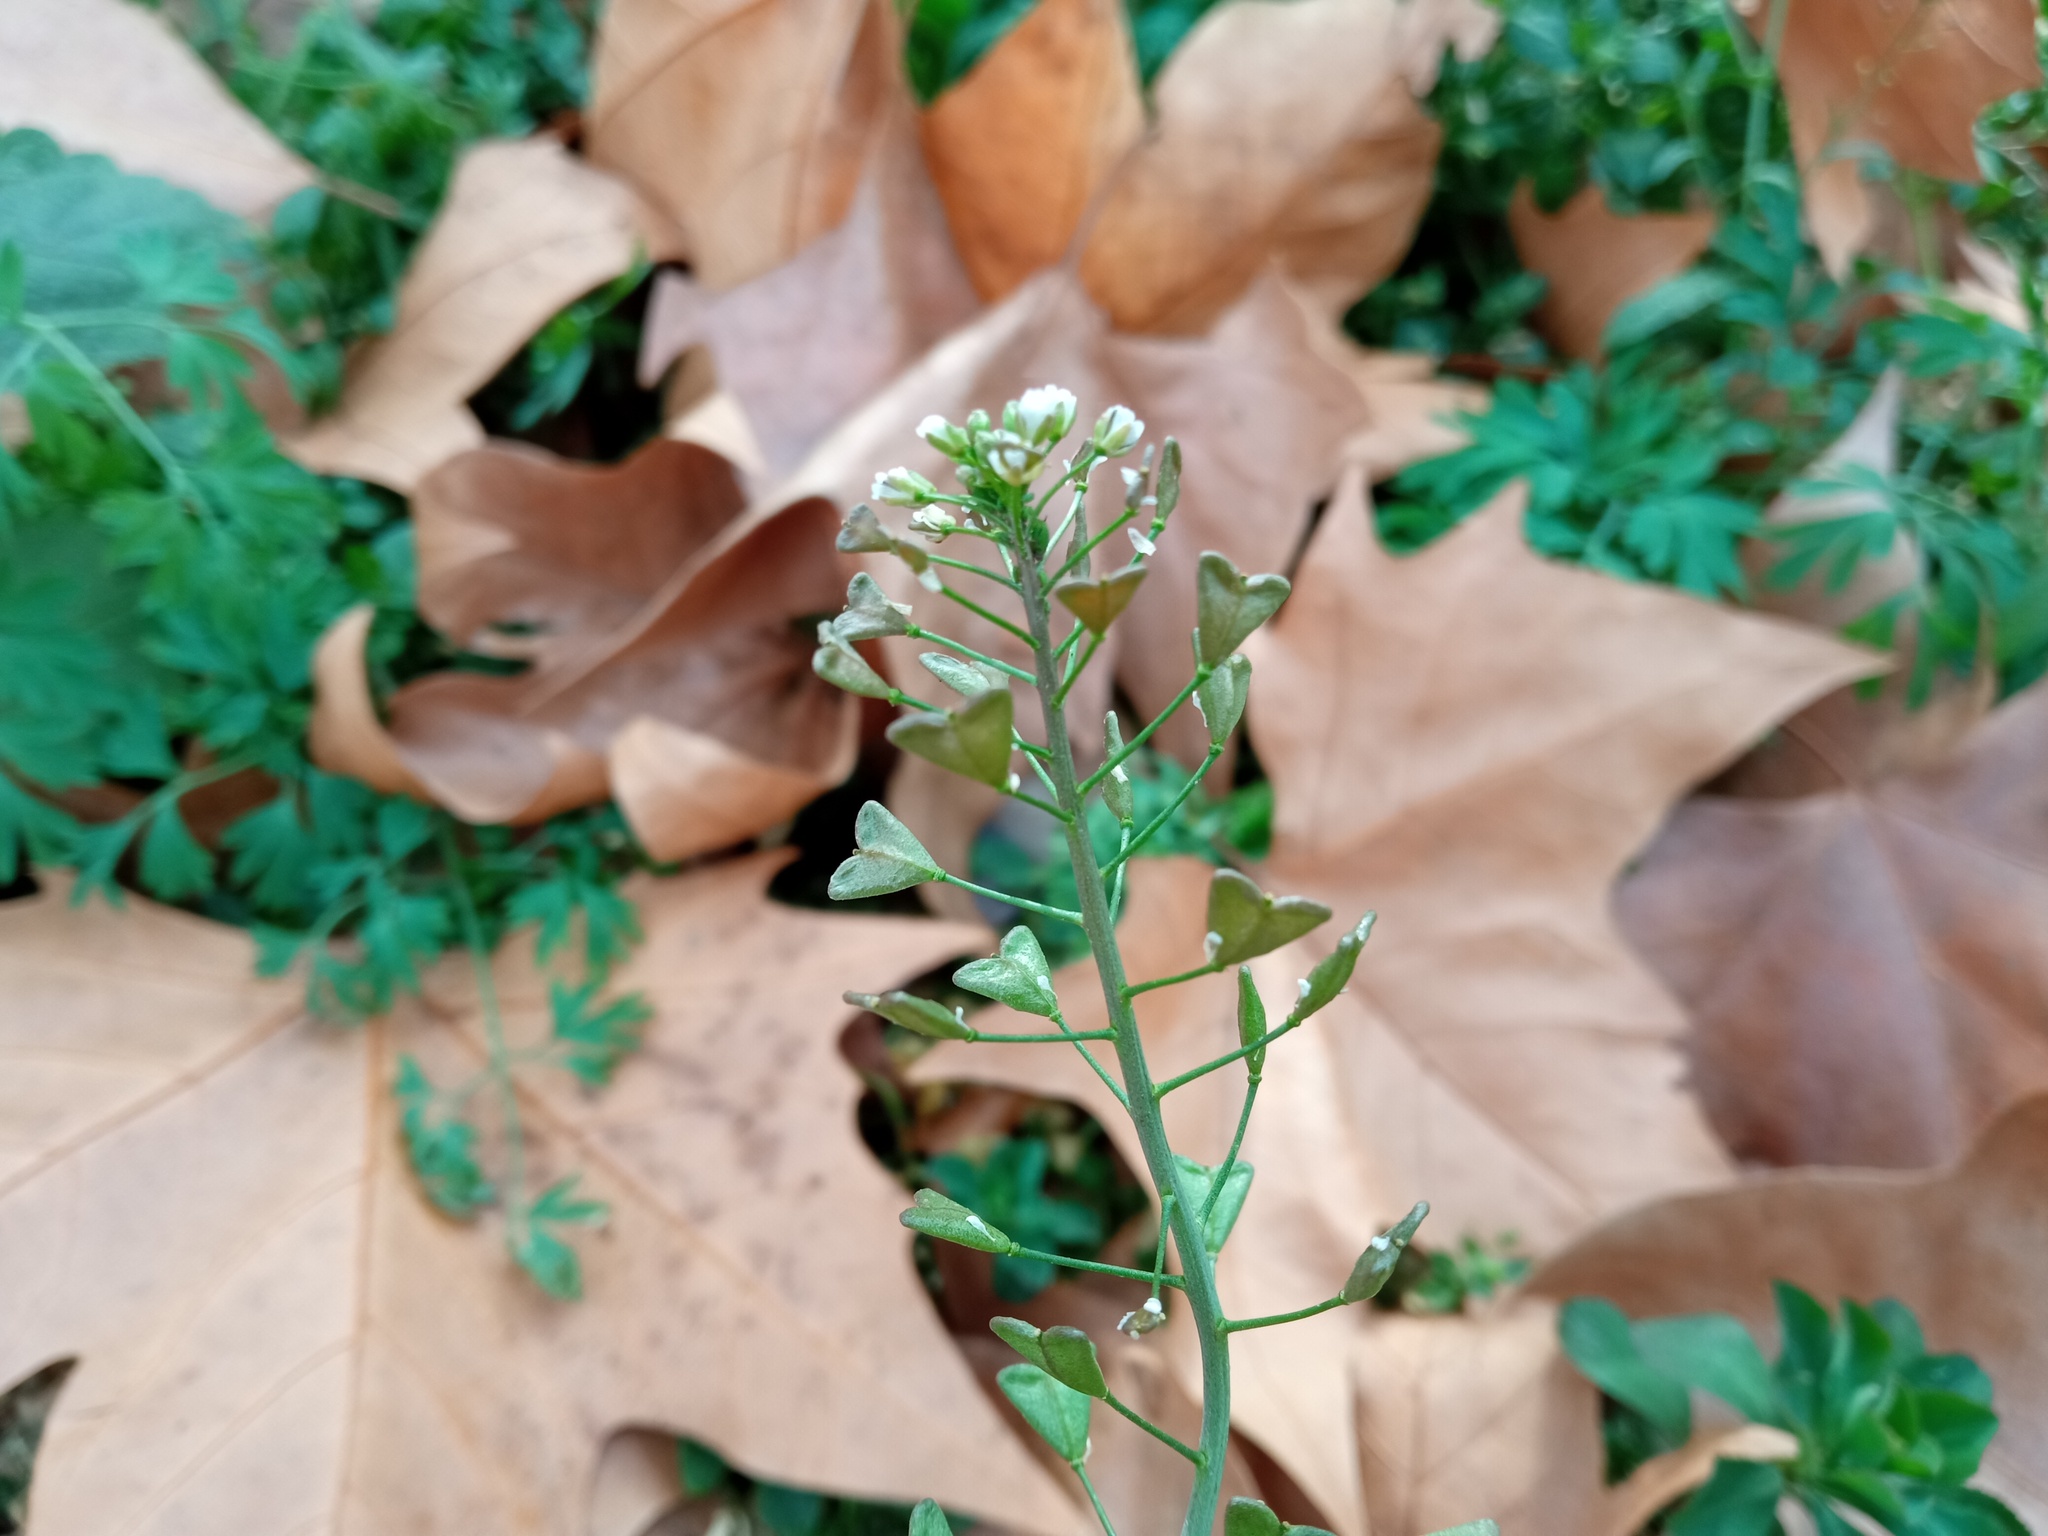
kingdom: Plantae
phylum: Tracheophyta
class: Magnoliopsida
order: Brassicales
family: Brassicaceae
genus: Capsella
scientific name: Capsella bursa-pastoris
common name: Shepherd's purse
